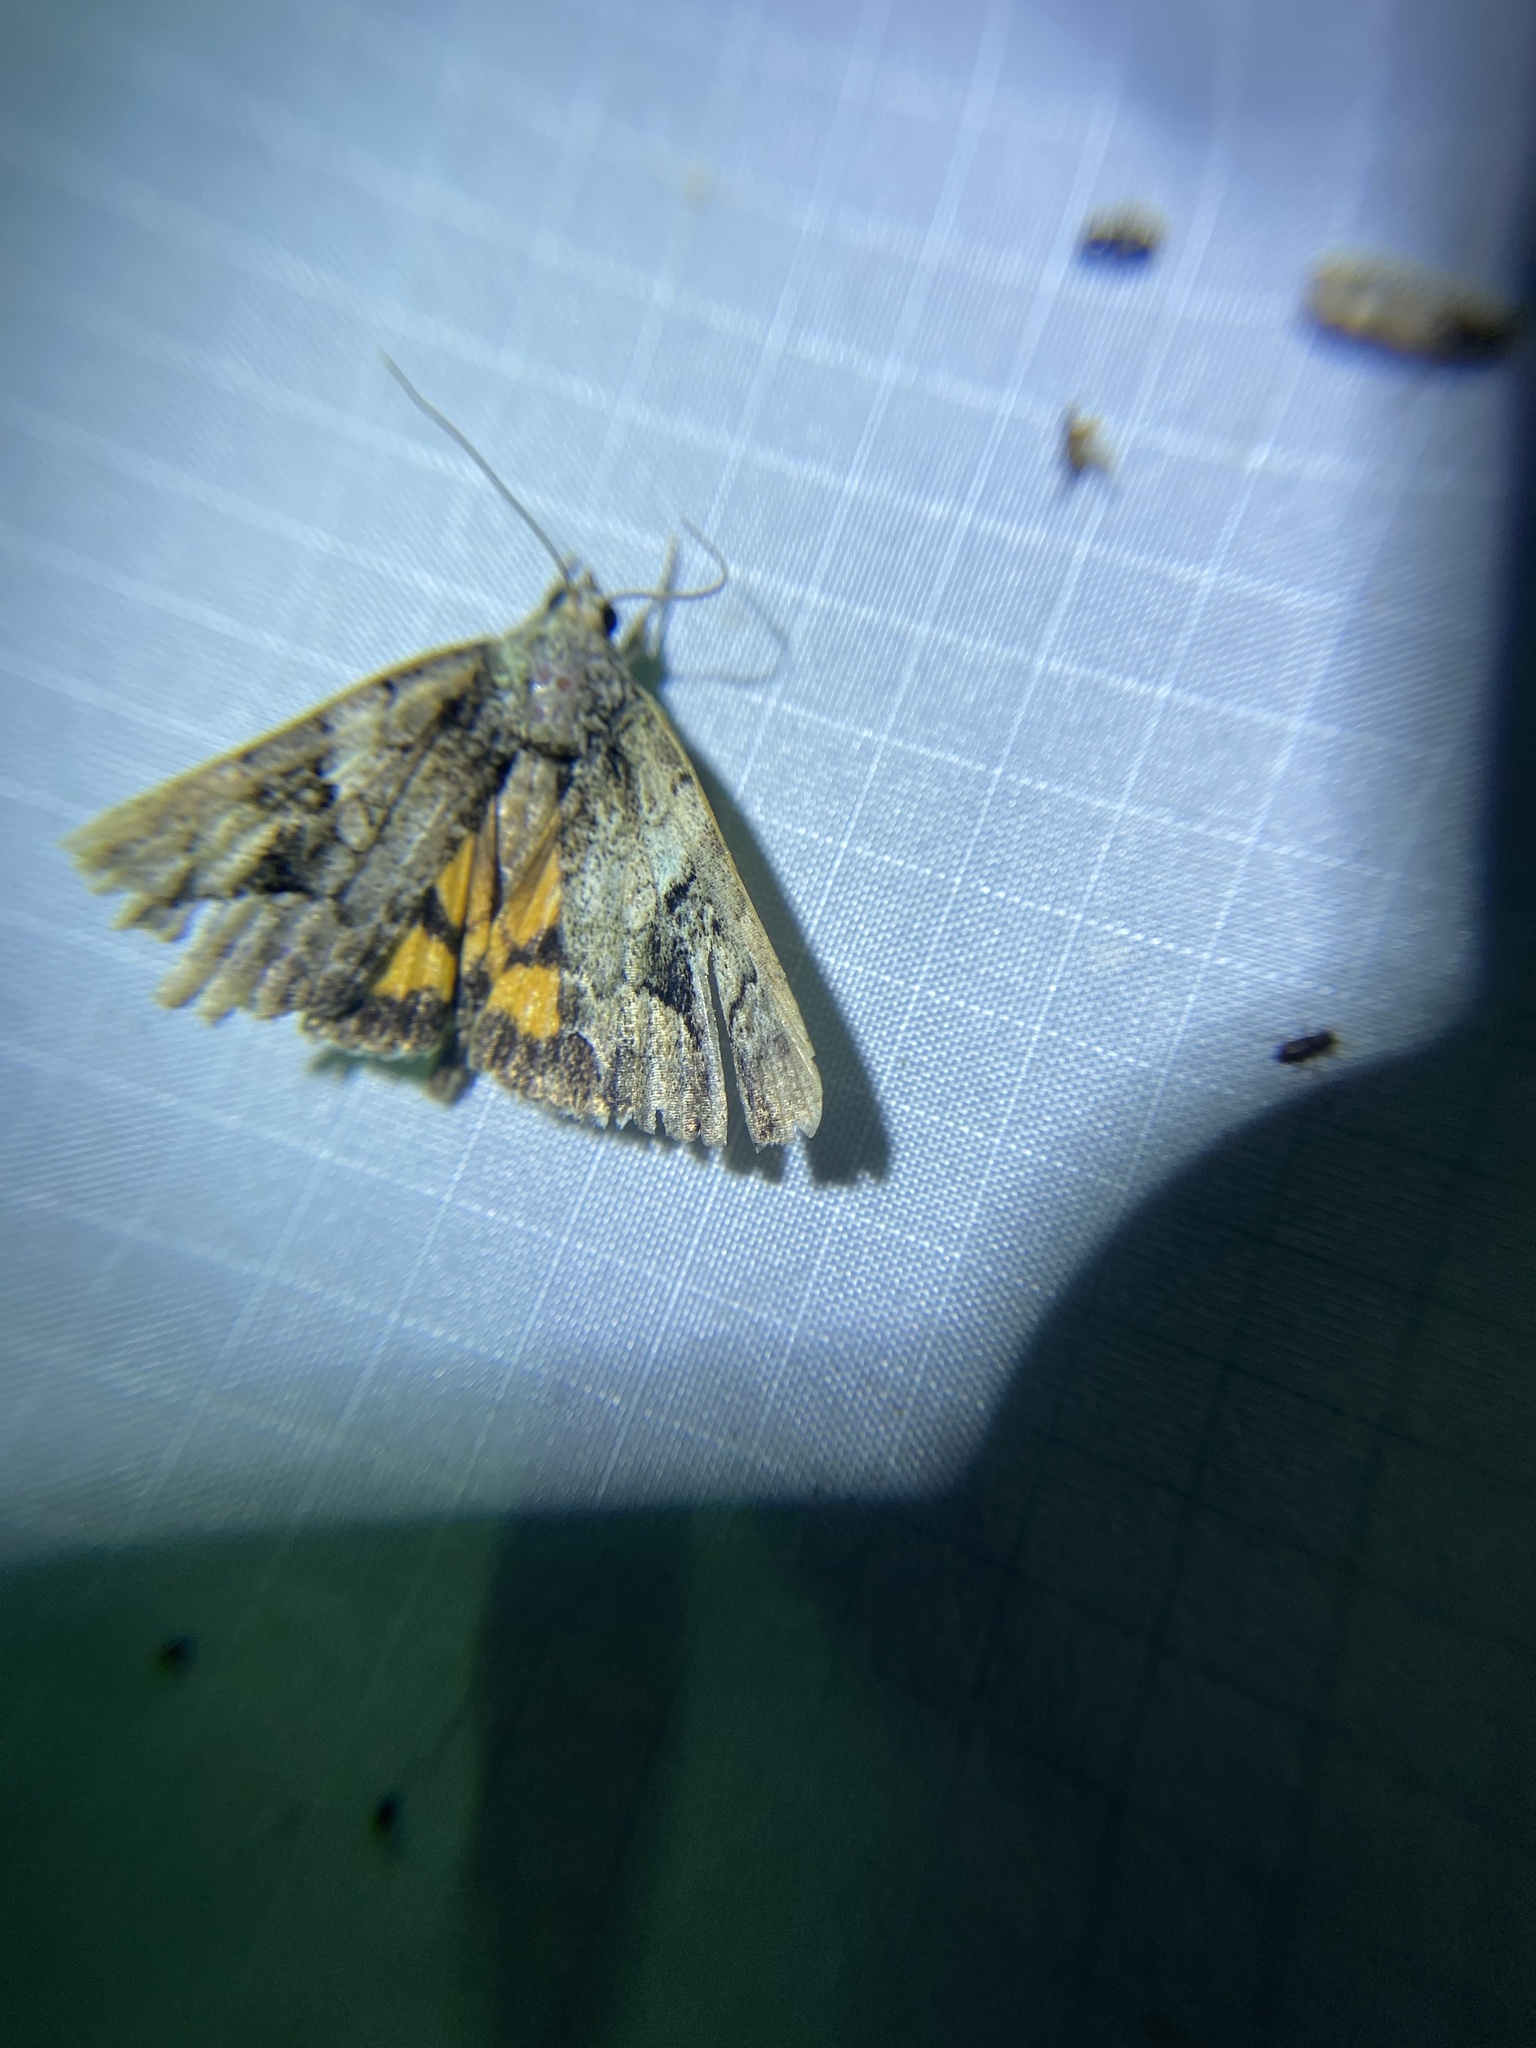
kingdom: Animalia
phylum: Arthropoda
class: Insecta
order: Lepidoptera
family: Erebidae
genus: Catocala
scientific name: Catocala micronympha
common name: Little nymph underwing
